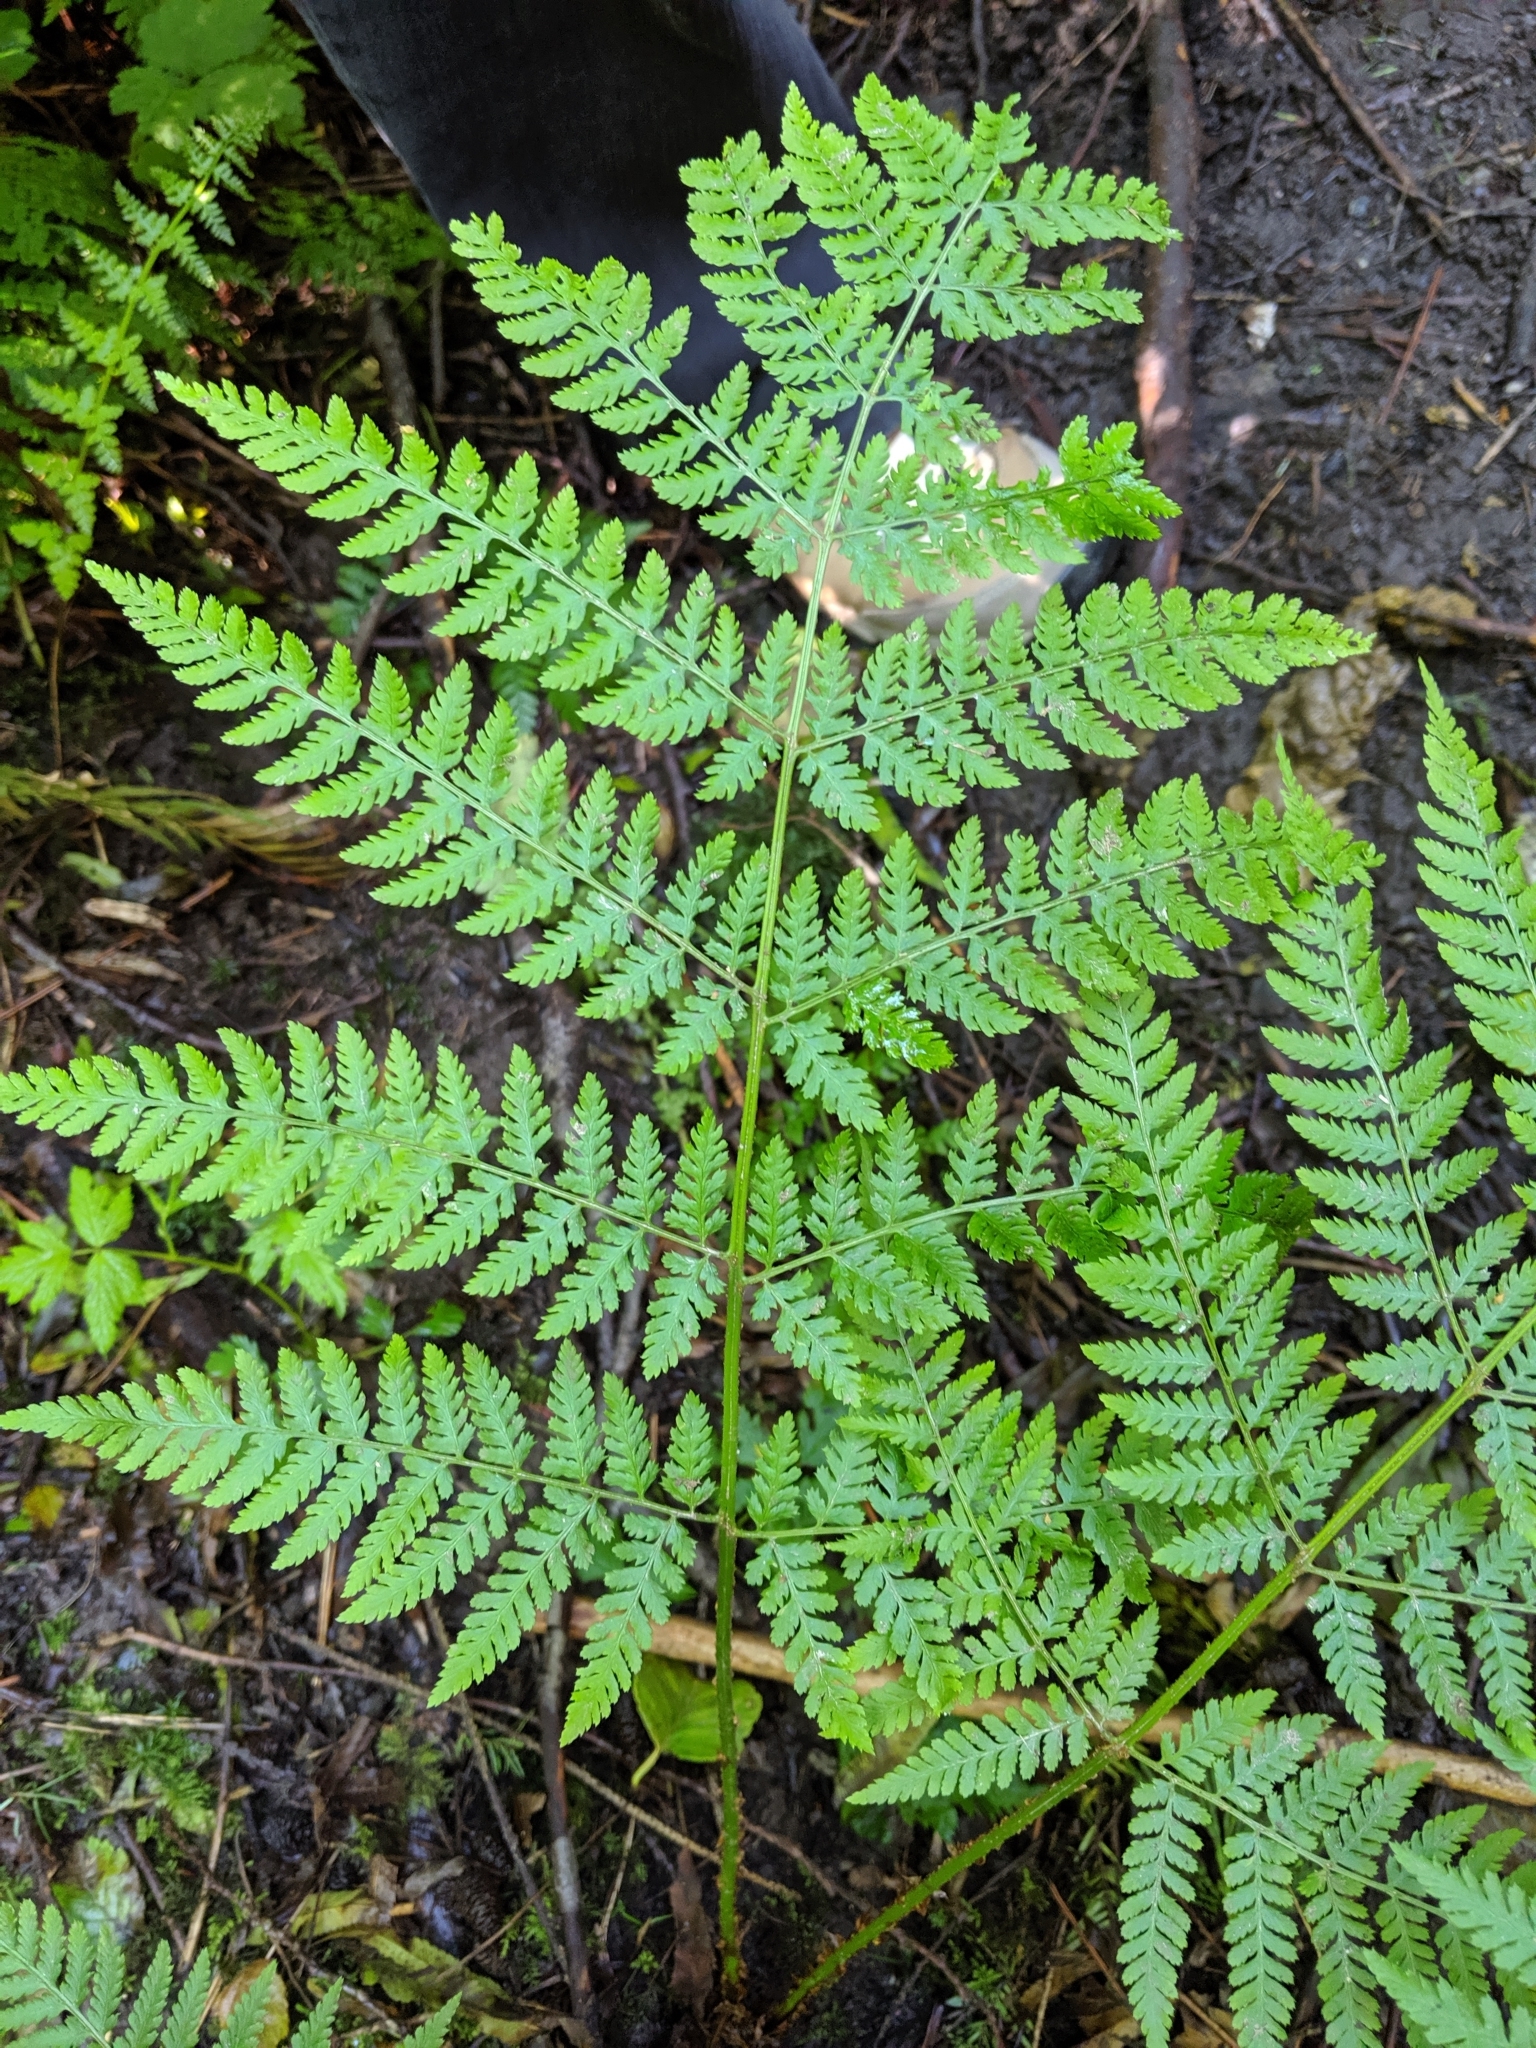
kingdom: Plantae
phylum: Tracheophyta
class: Polypodiopsida
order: Polypodiales
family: Dryopteridaceae
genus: Dryopteris
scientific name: Dryopteris expansa
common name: Northern buckler fern
